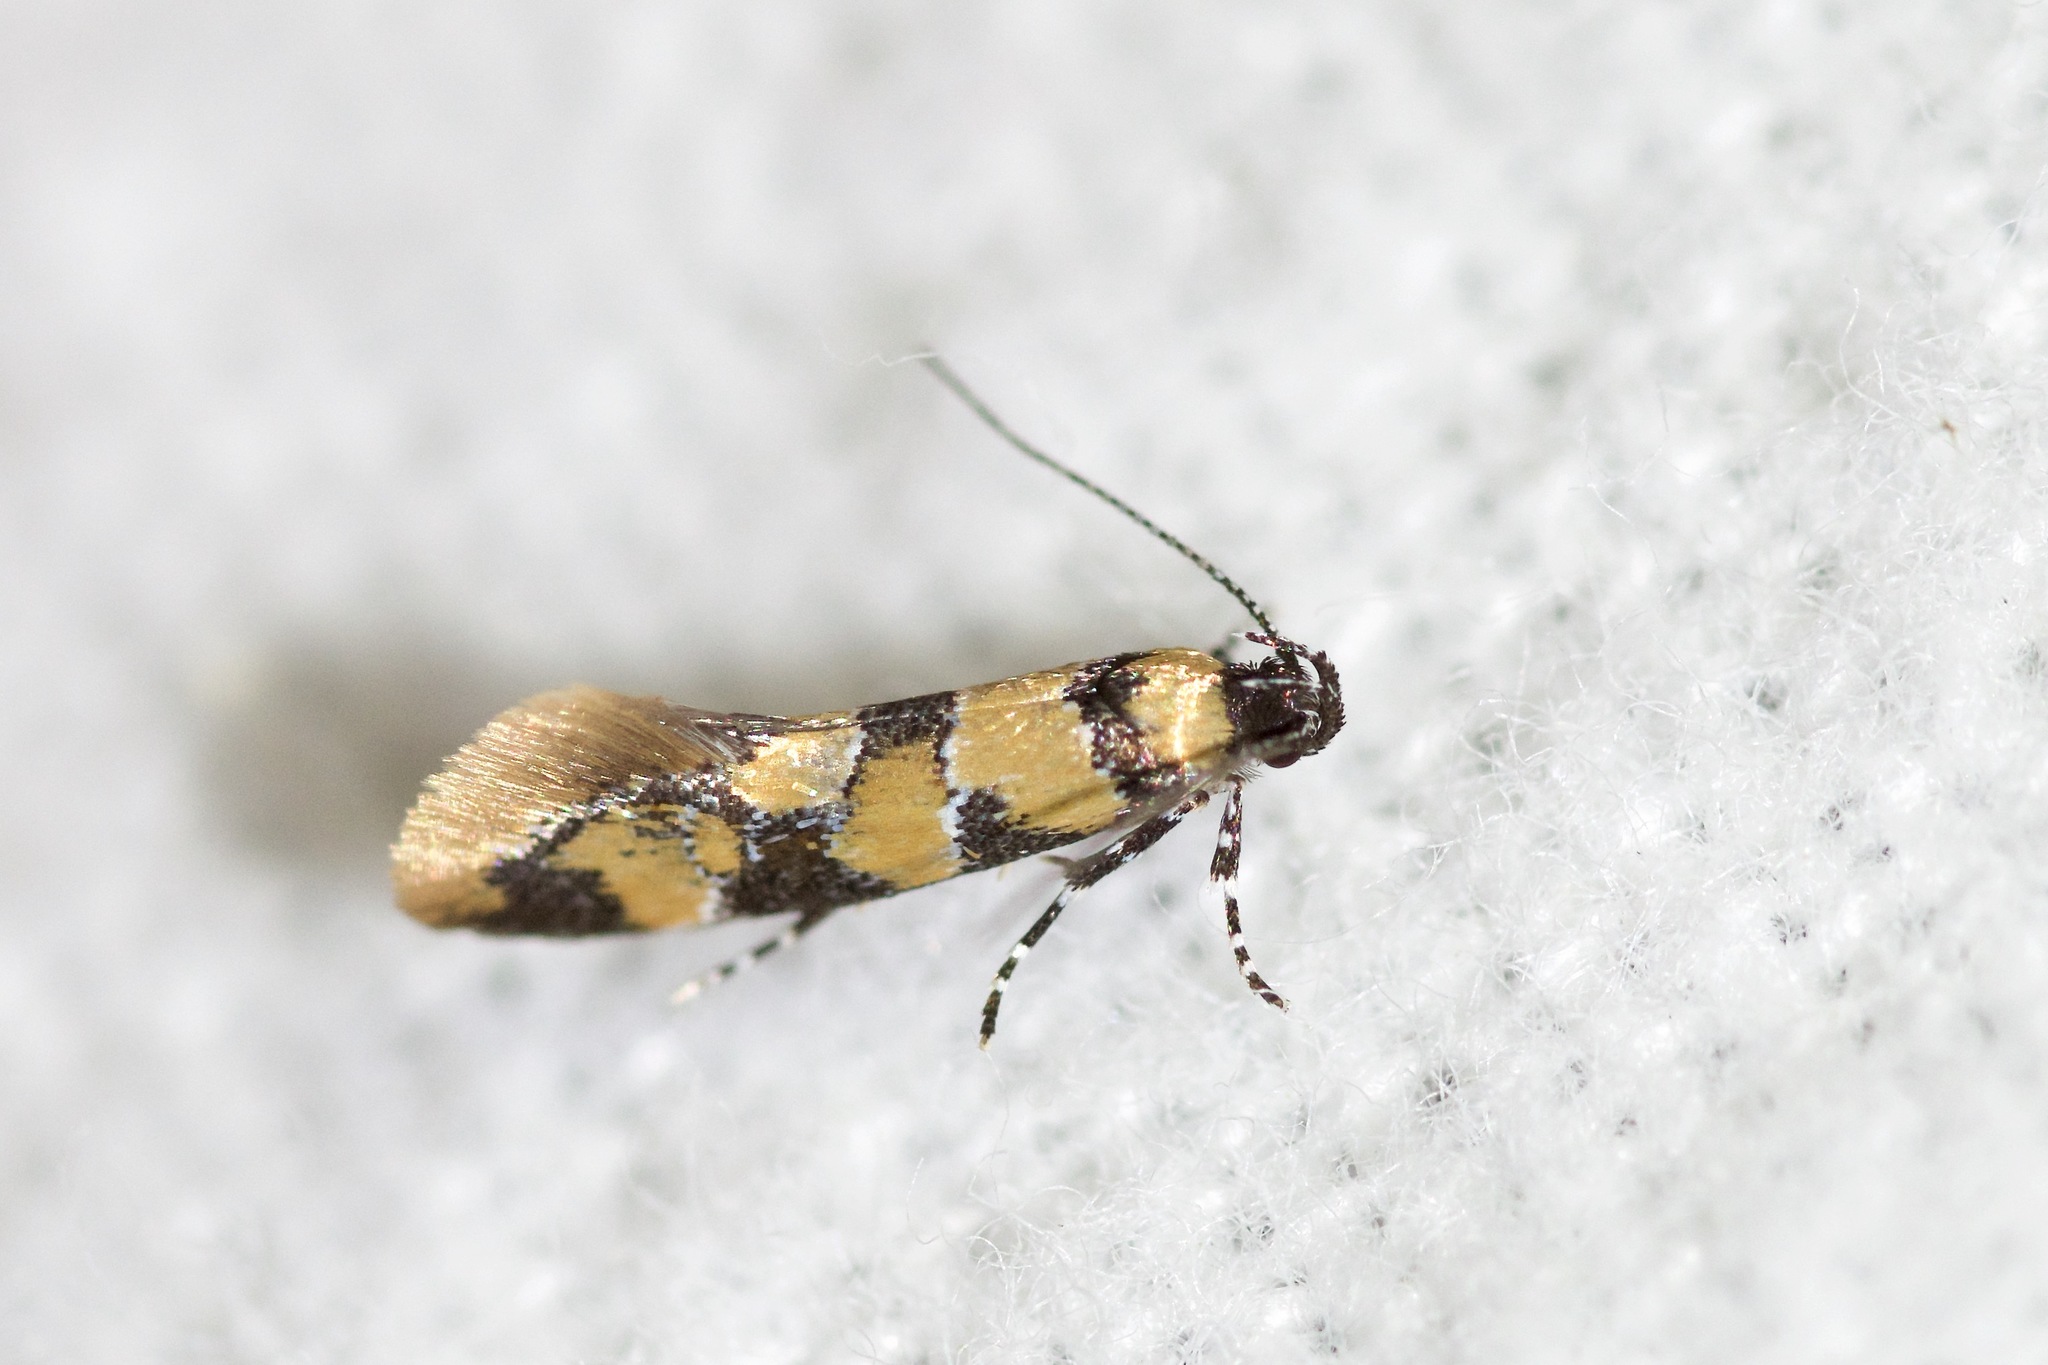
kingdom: Animalia
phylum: Arthropoda
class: Insecta
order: Lepidoptera
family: Oecophoridae
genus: Decantha
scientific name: Decantha borkhausenii
